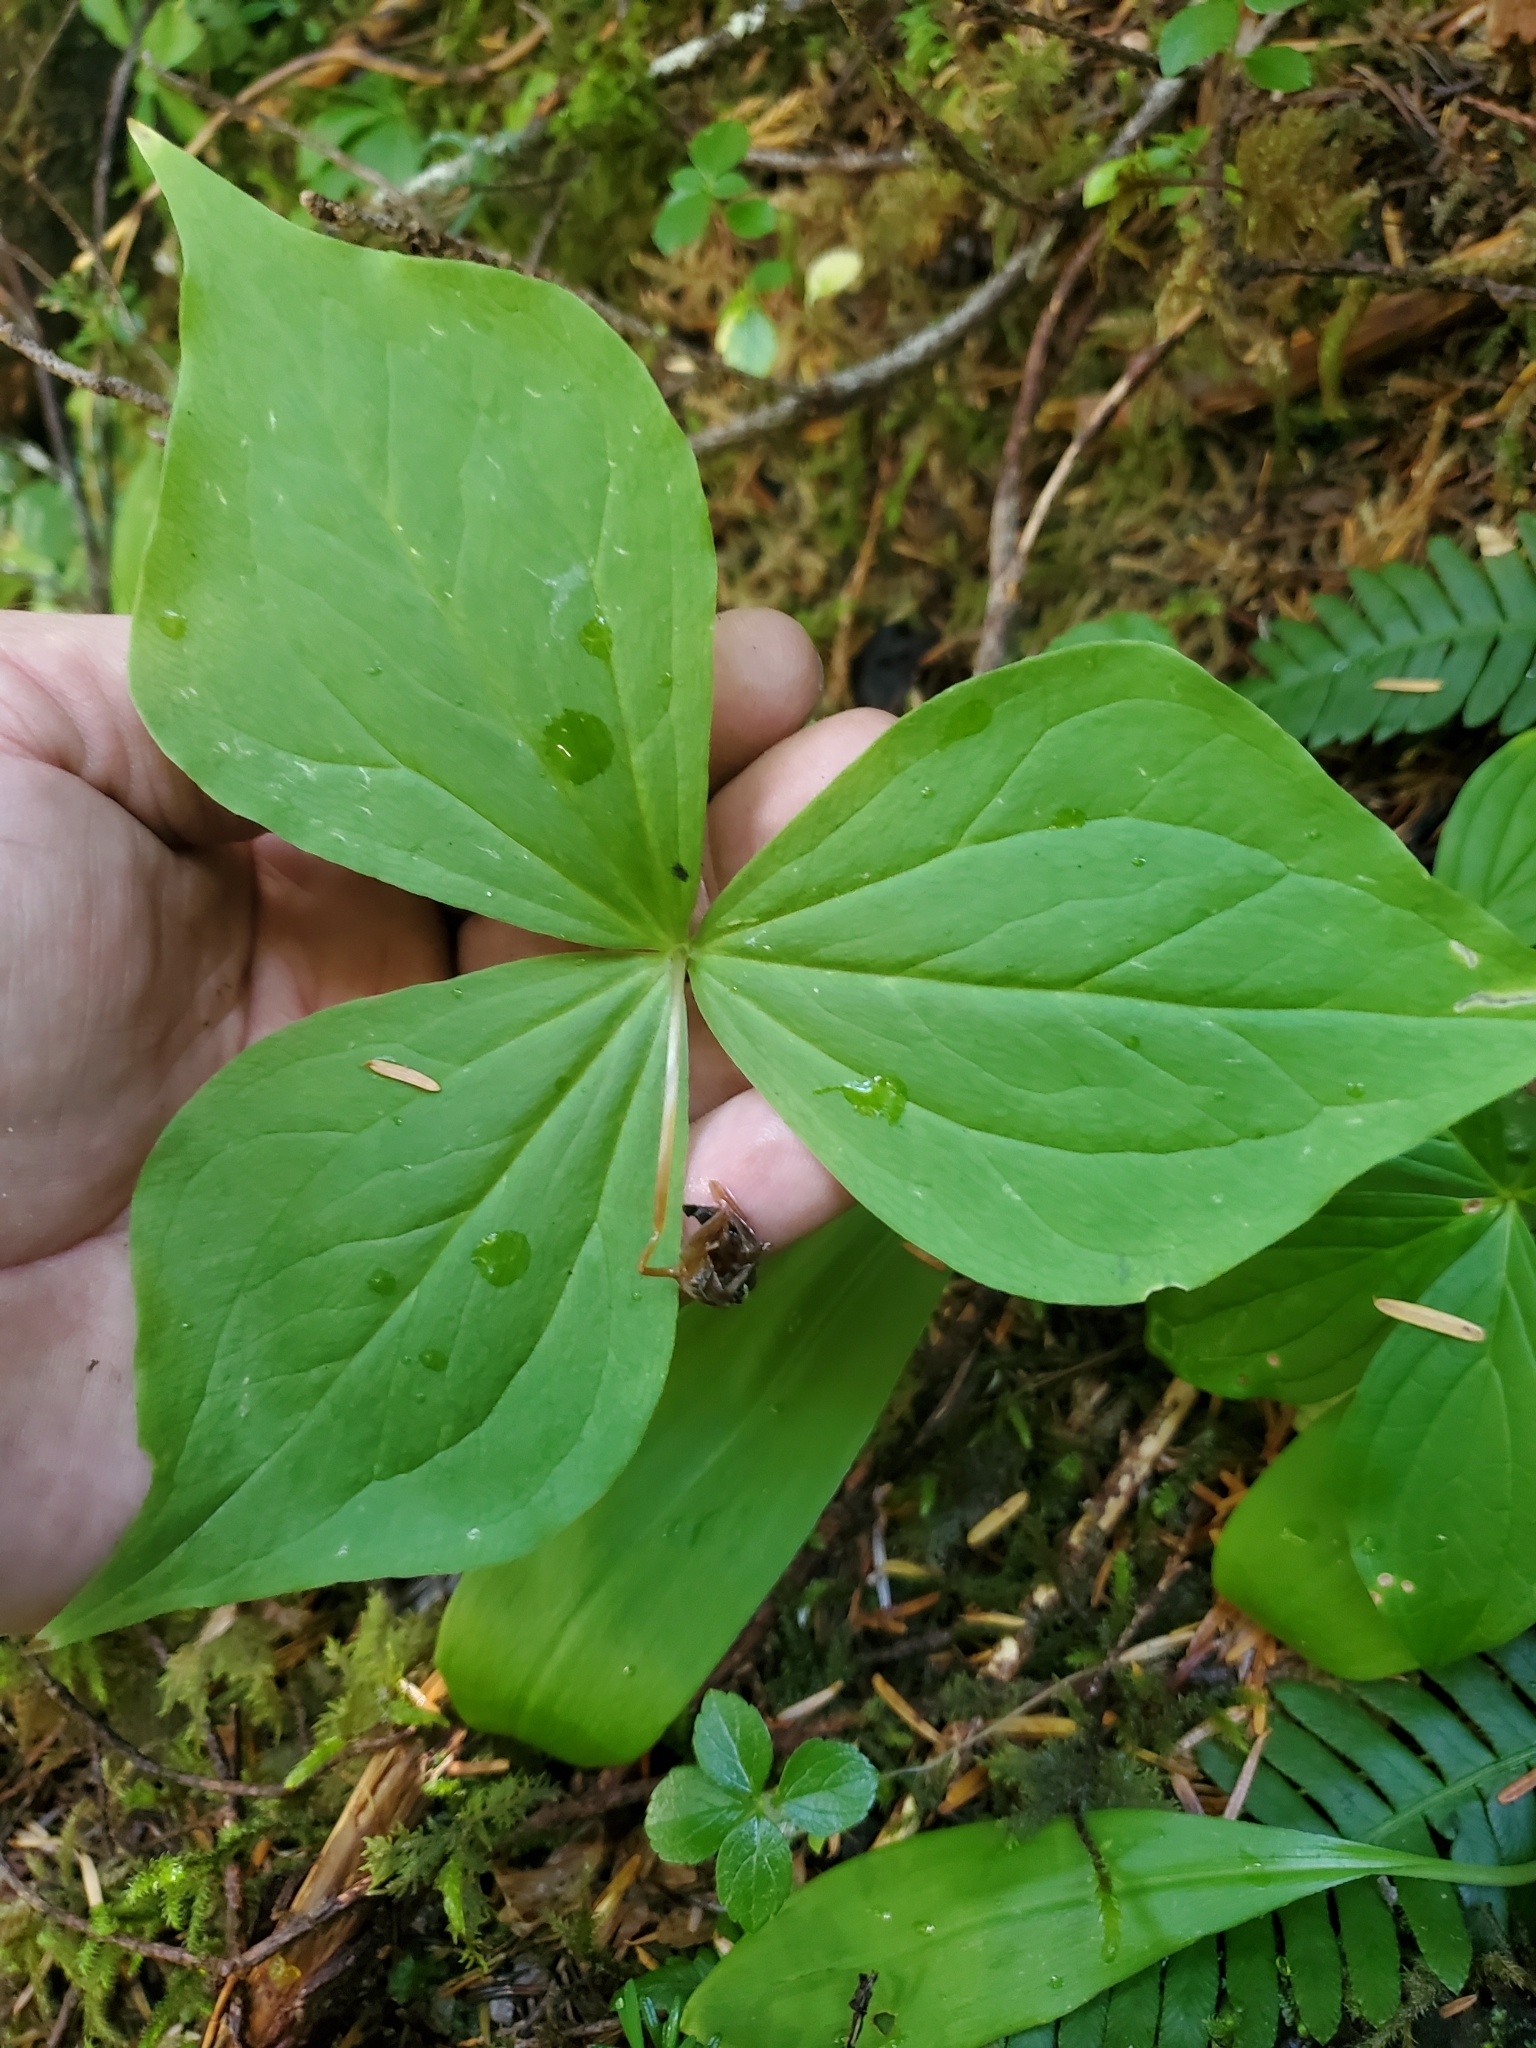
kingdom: Plantae
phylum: Tracheophyta
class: Liliopsida
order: Liliales
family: Melanthiaceae
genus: Trillium
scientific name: Trillium ovatum
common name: Pacific trillium
